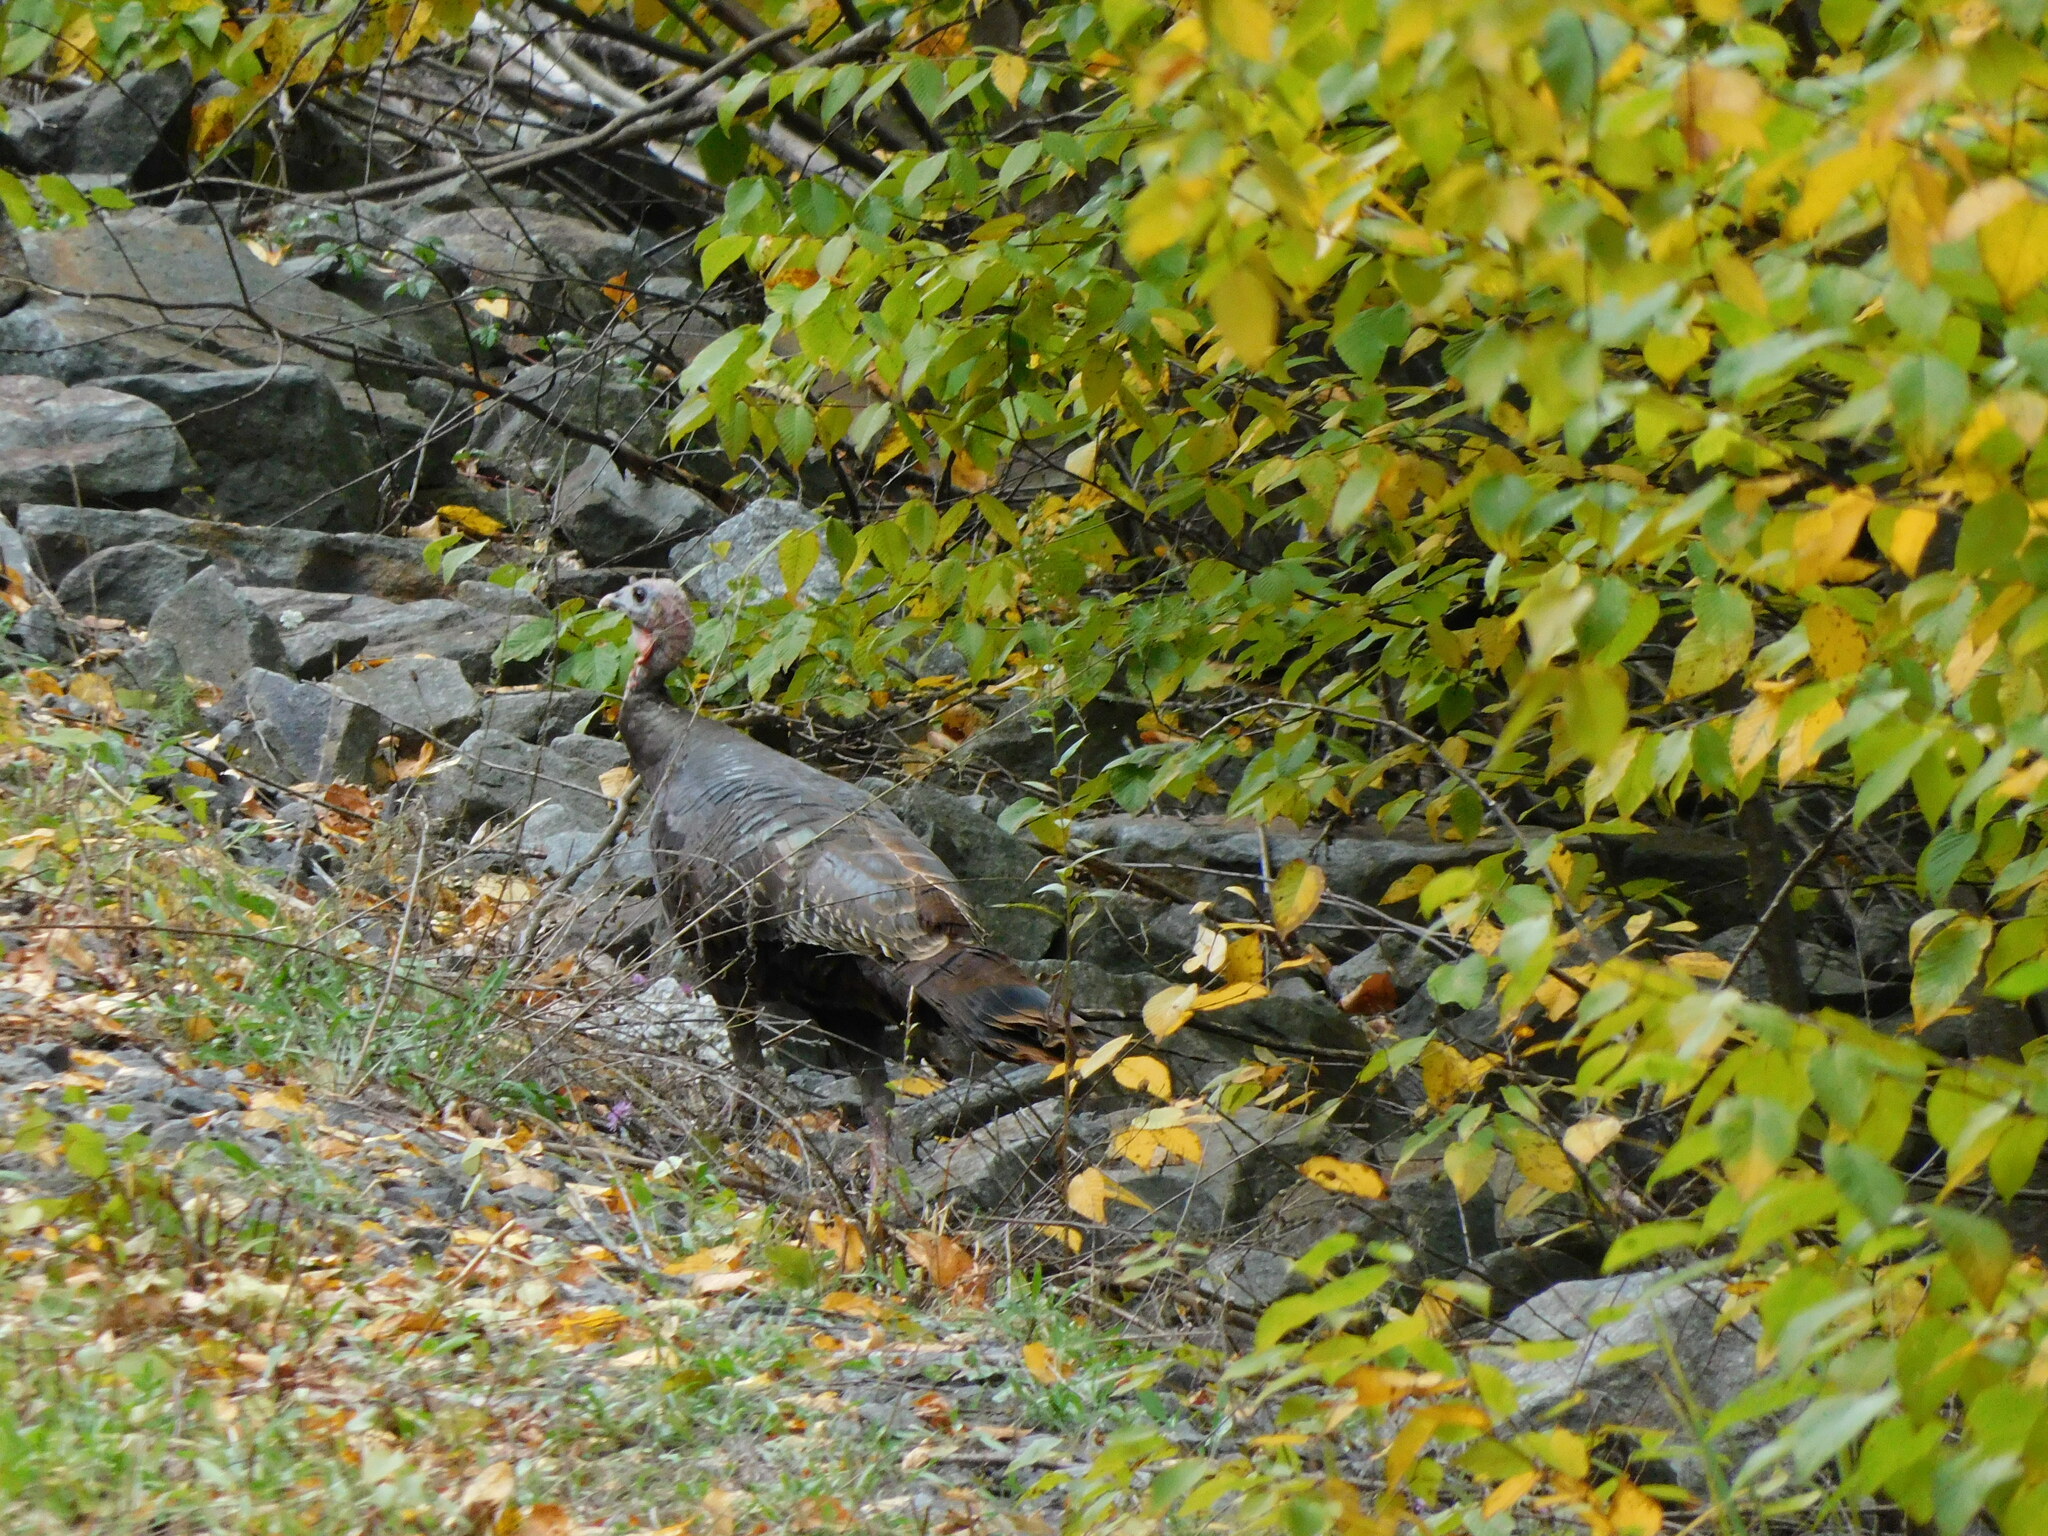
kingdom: Animalia
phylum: Chordata
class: Aves
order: Galliformes
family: Phasianidae
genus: Meleagris
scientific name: Meleagris gallopavo
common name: Wild turkey
